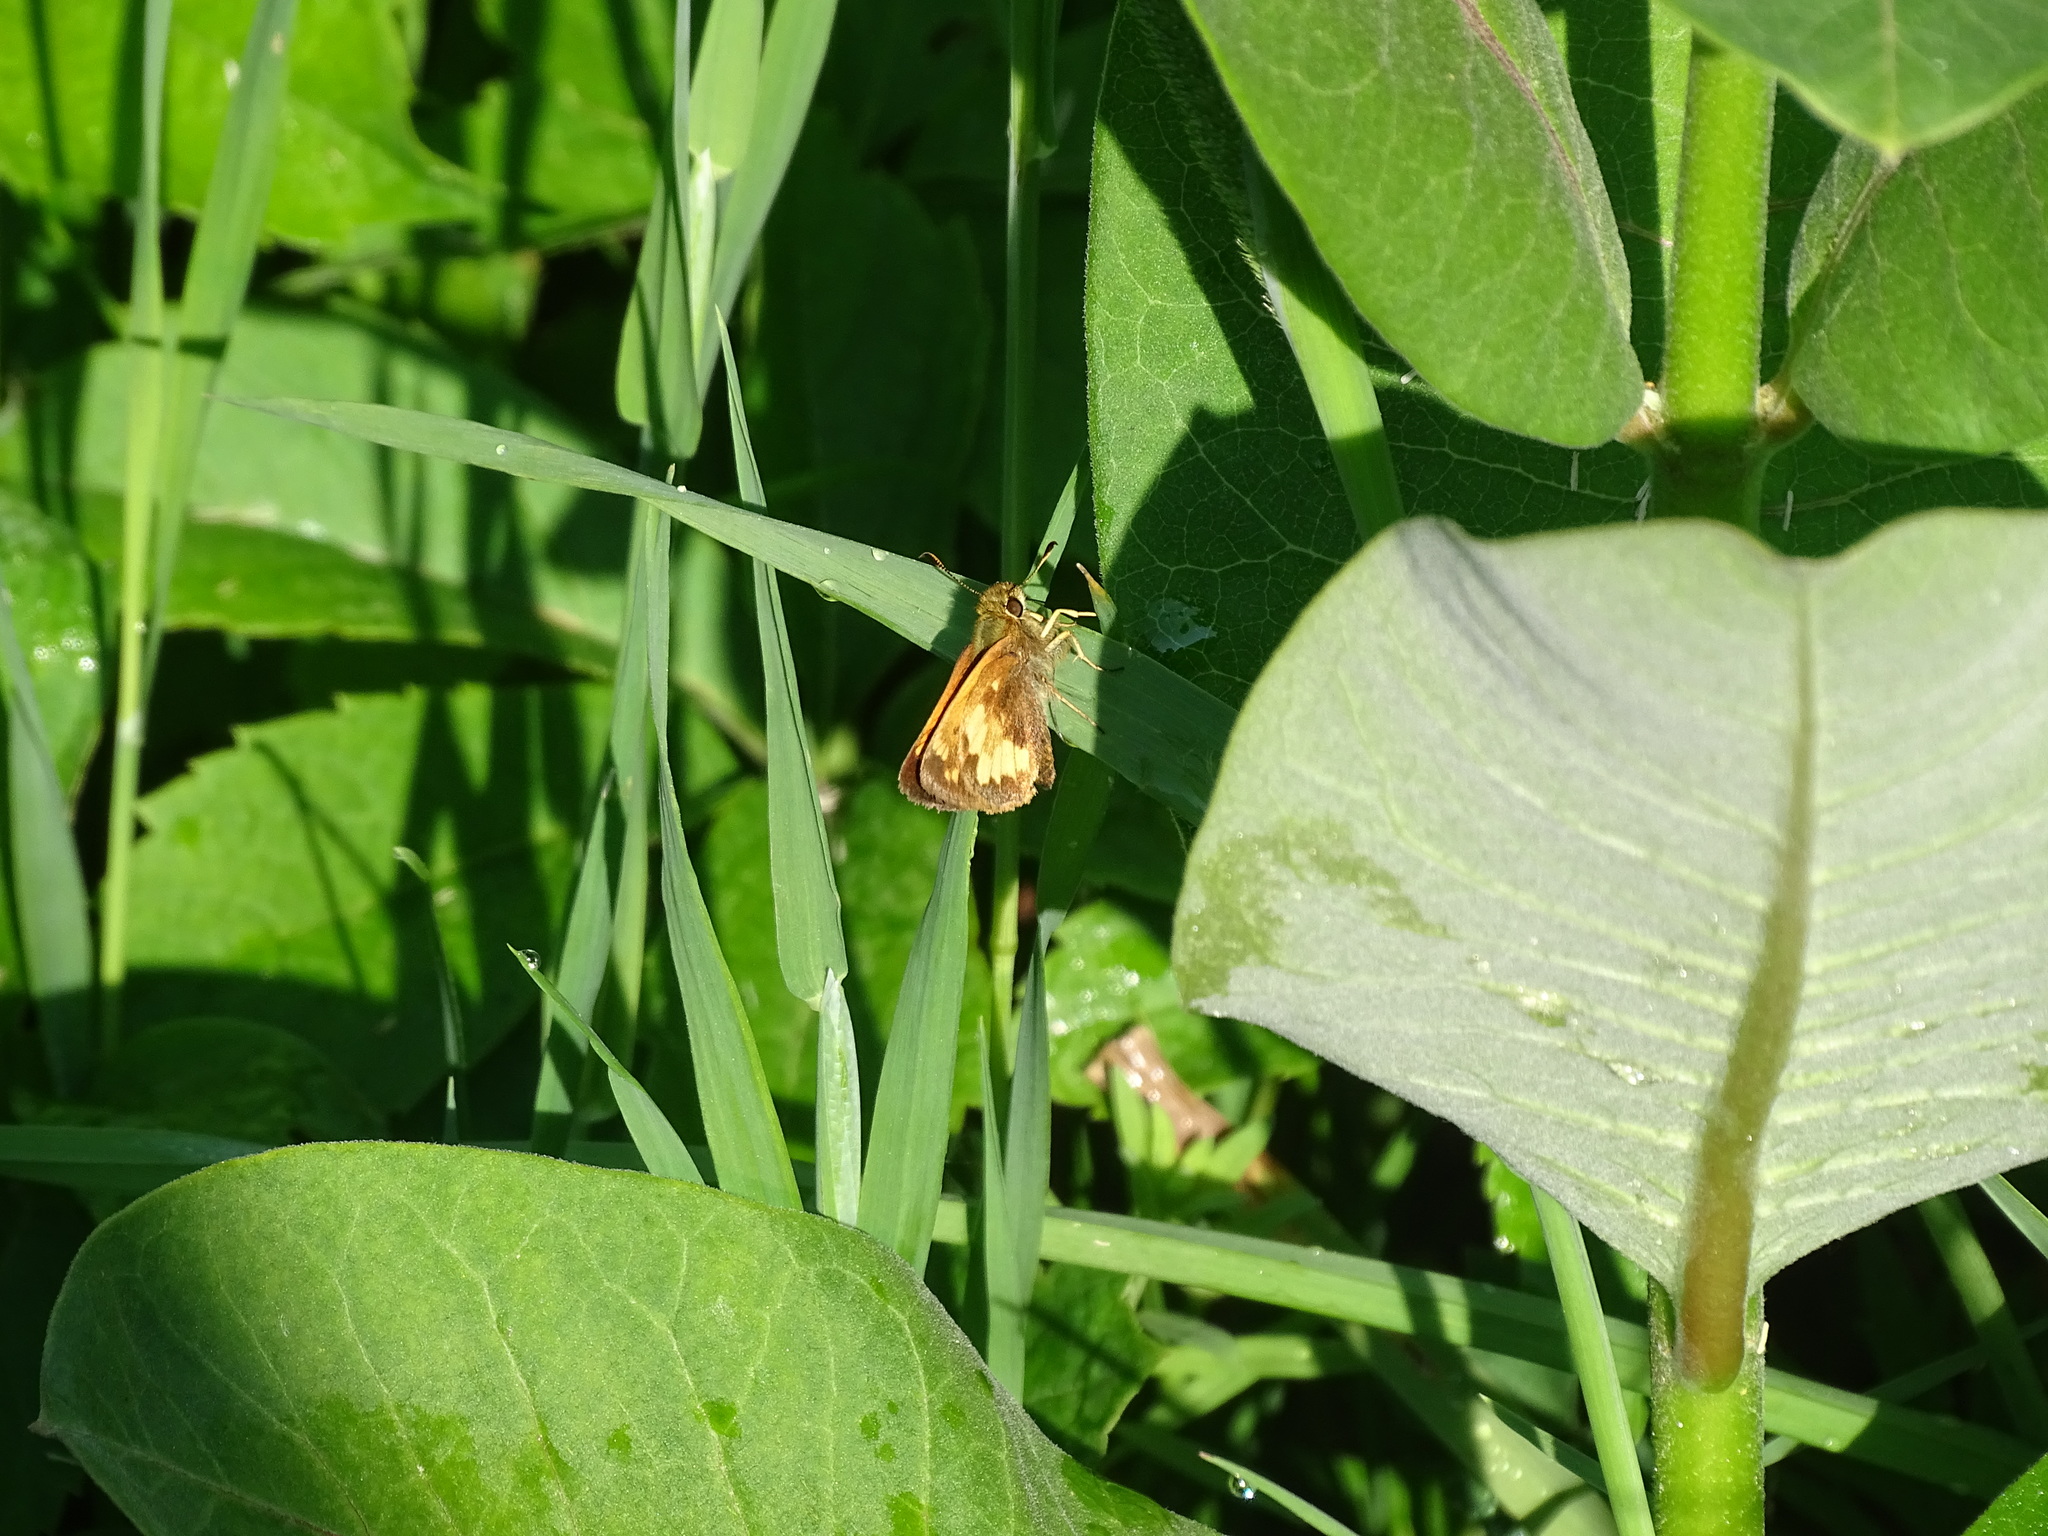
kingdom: Animalia
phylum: Arthropoda
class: Insecta
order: Lepidoptera
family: Hesperiidae
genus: Lon
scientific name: Lon hobomok
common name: Hobomok skipper
